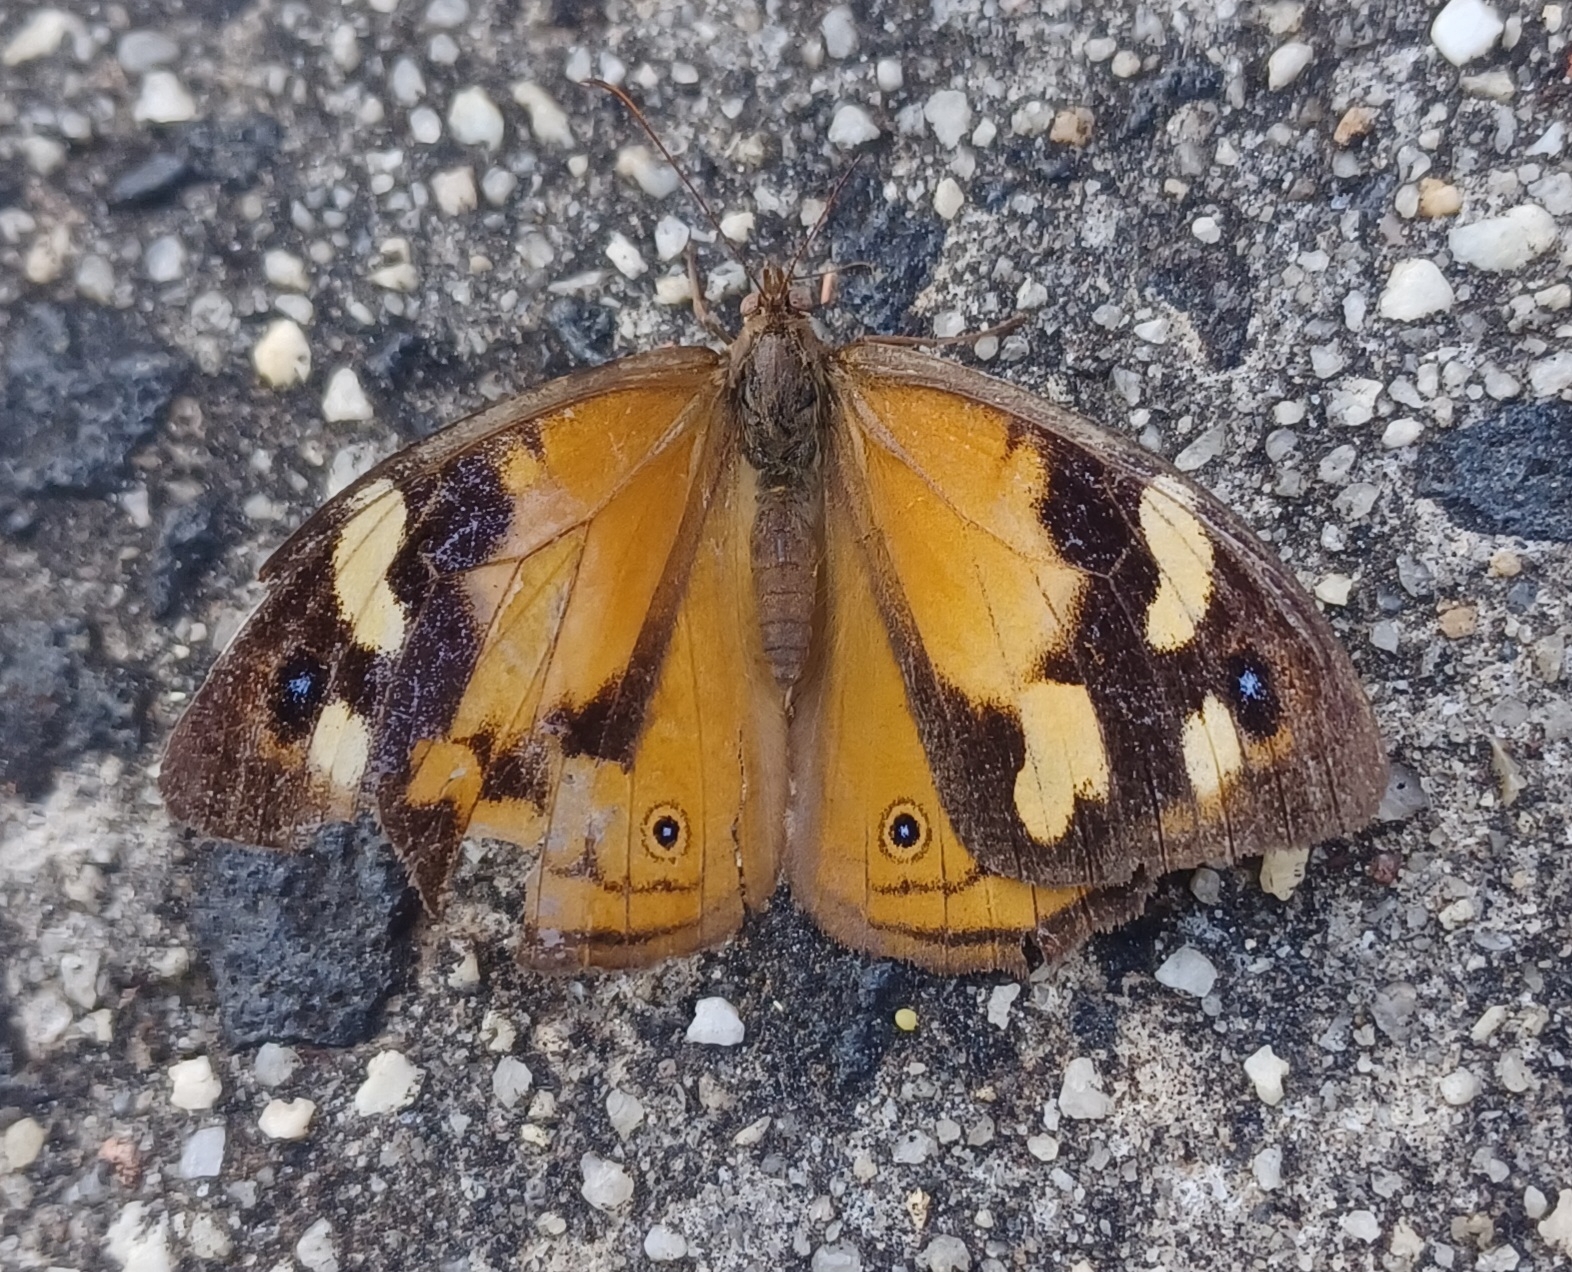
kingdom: Animalia
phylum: Arthropoda
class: Insecta
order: Lepidoptera
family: Nymphalidae
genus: Heteronympha
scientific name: Heteronympha merope
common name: Common brown
